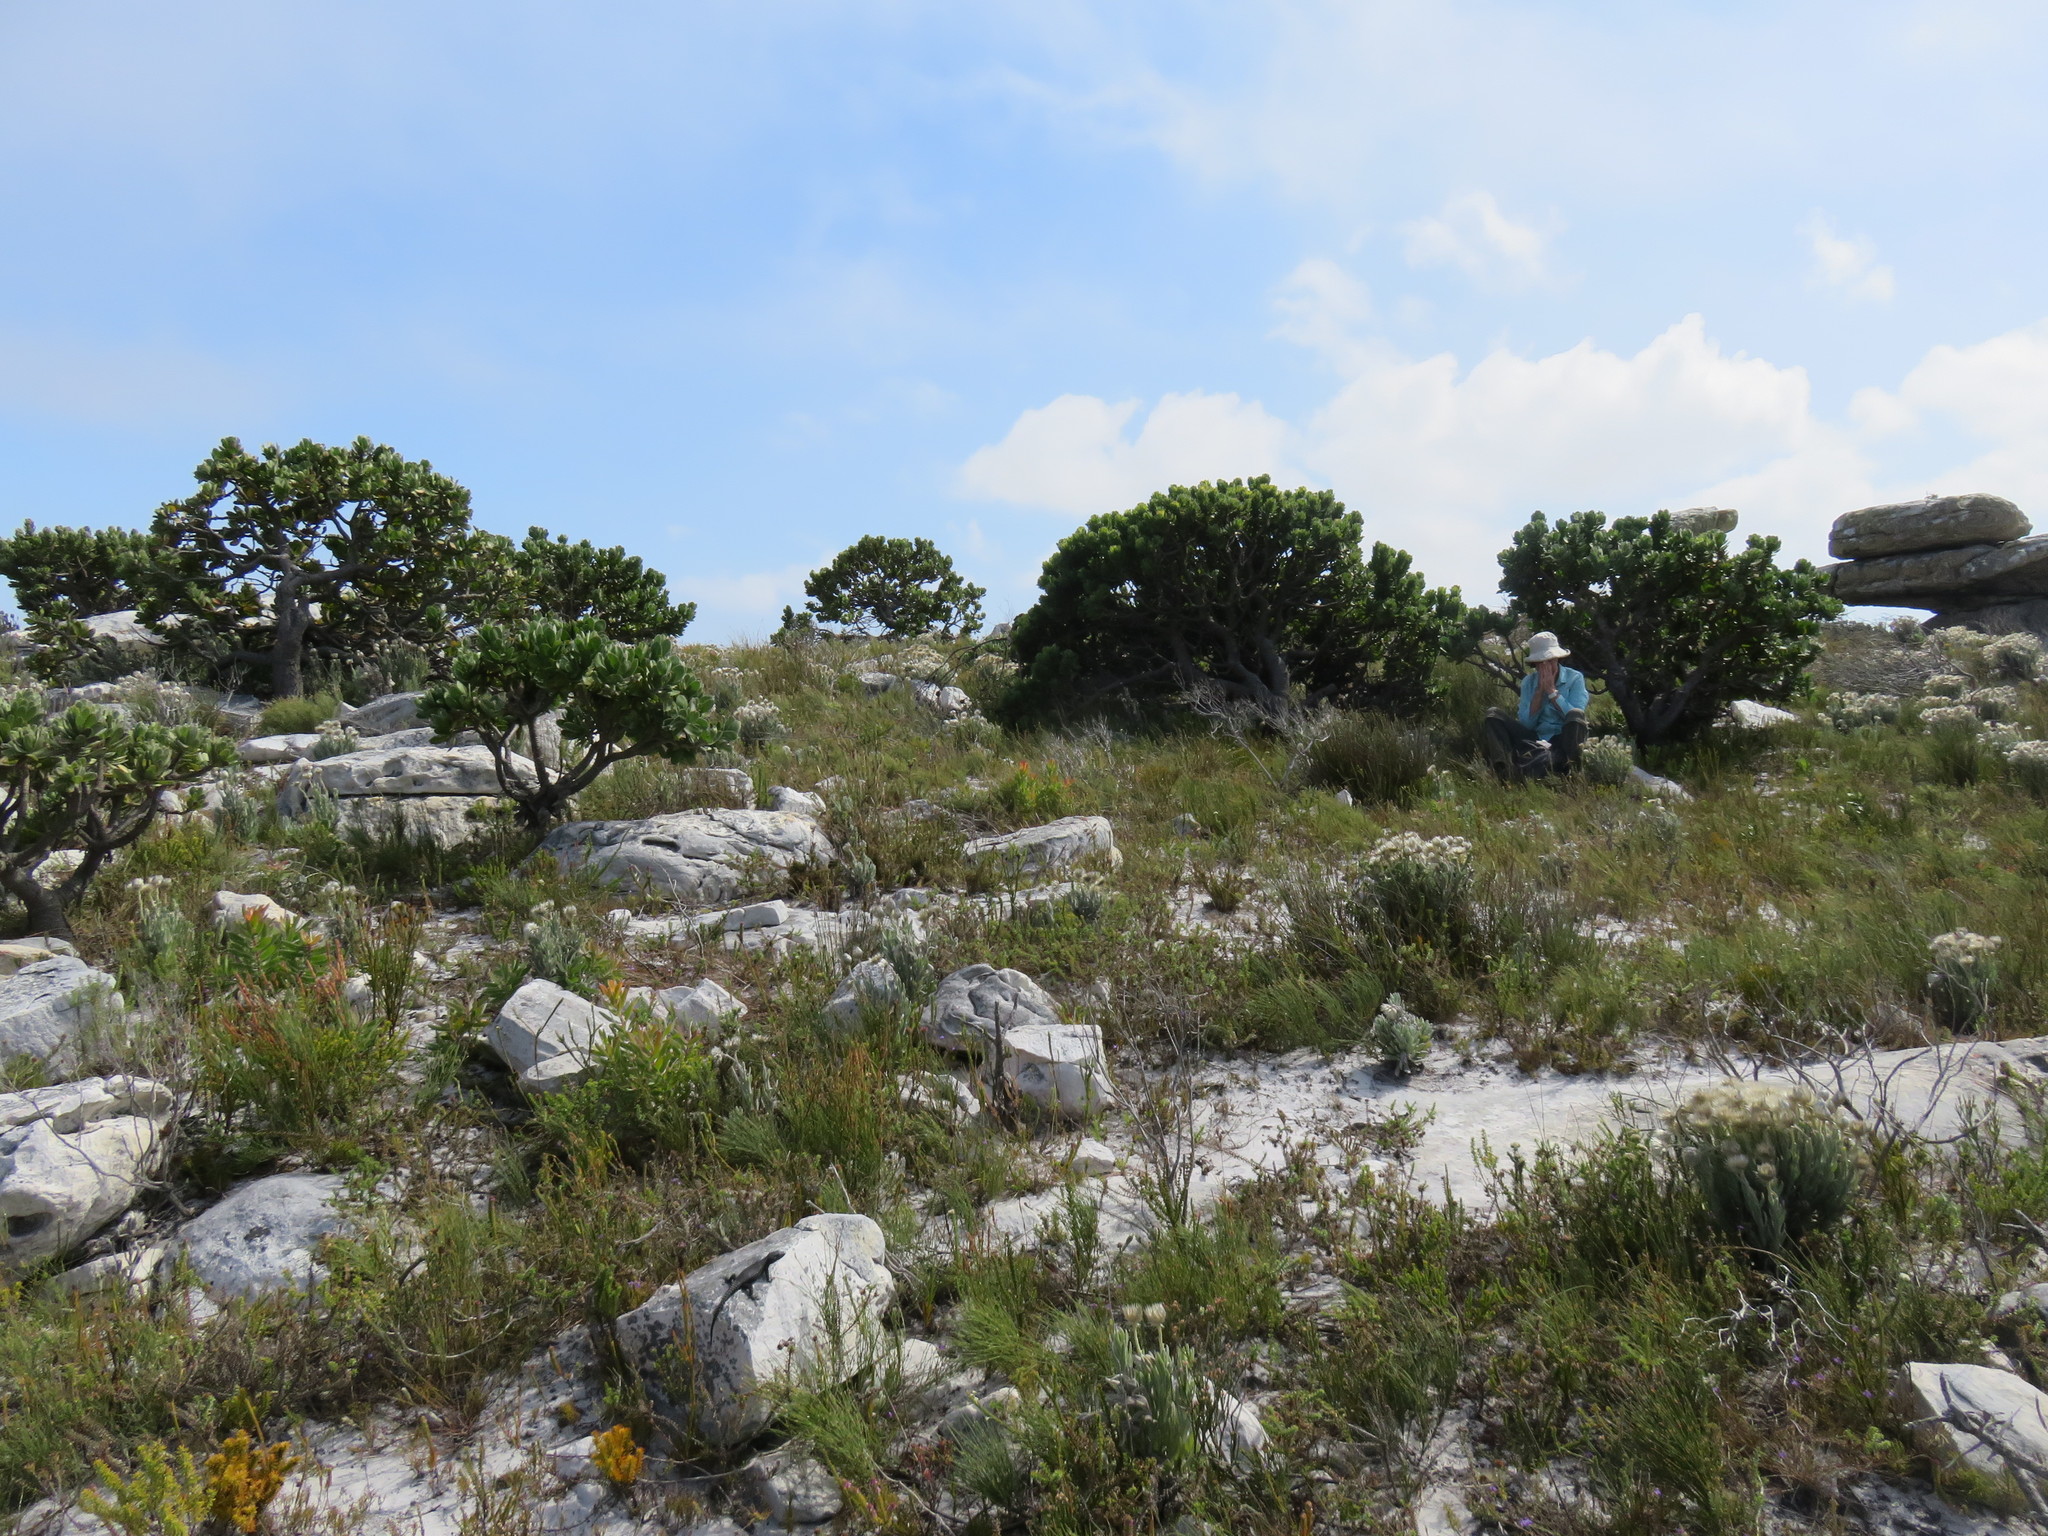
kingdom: Plantae
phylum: Tracheophyta
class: Magnoliopsida
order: Proteales
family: Proteaceae
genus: Leucospermum
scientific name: Leucospermum conocarpodendron
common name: Tree pincushion
